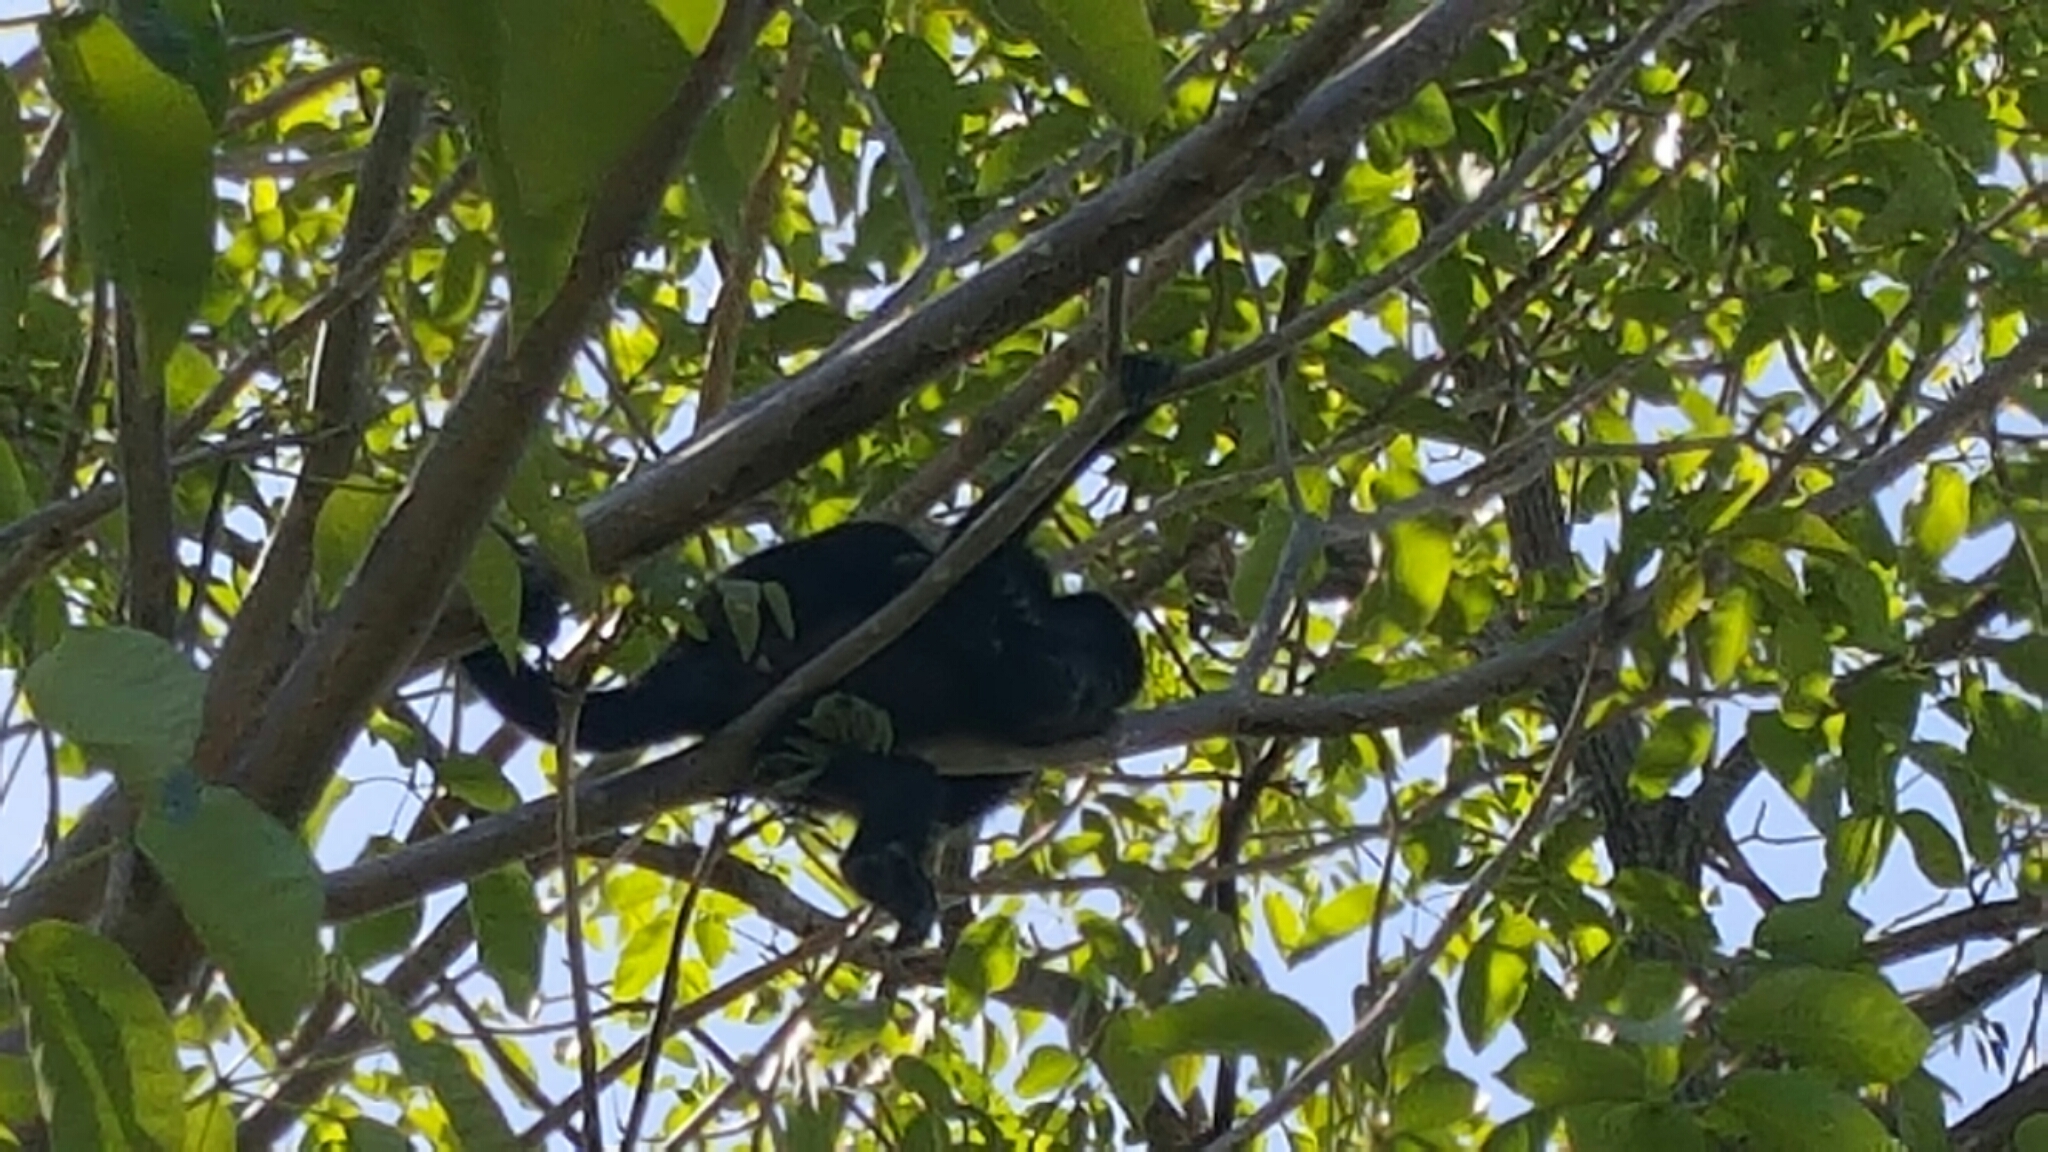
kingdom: Animalia
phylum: Chordata
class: Mammalia
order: Primates
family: Atelidae
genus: Alouatta
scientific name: Alouatta palliata
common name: Mantled howler
